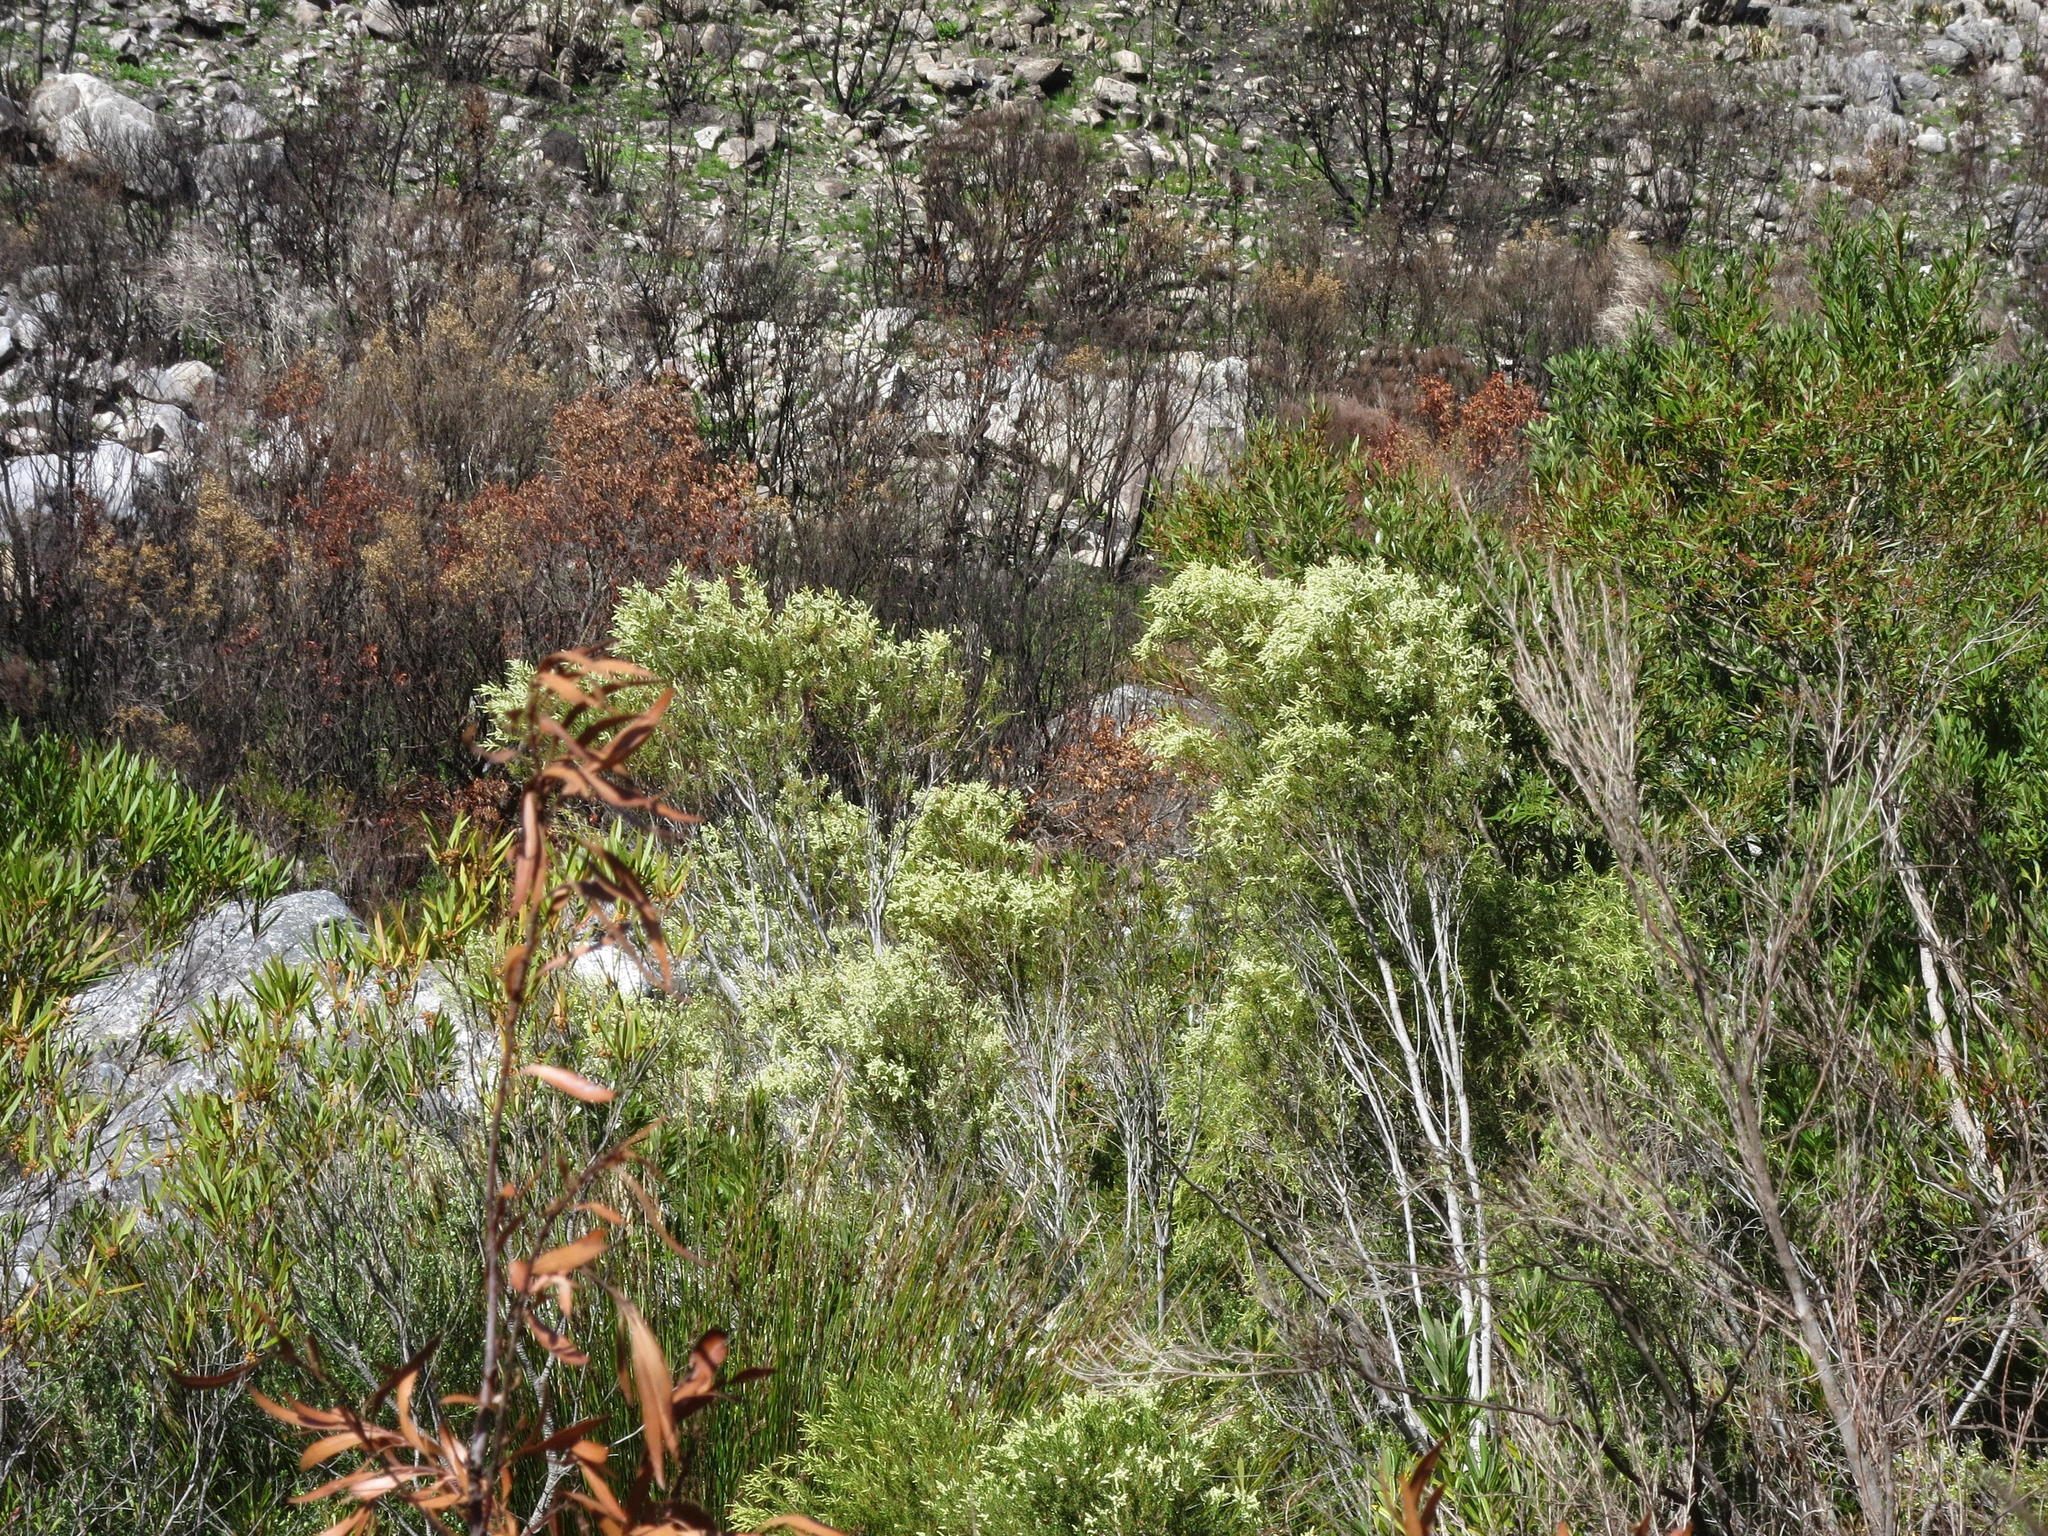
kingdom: Plantae
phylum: Tracheophyta
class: Magnoliopsida
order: Bruniales
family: Bruniaceae
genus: Brunia
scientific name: Brunia africana
